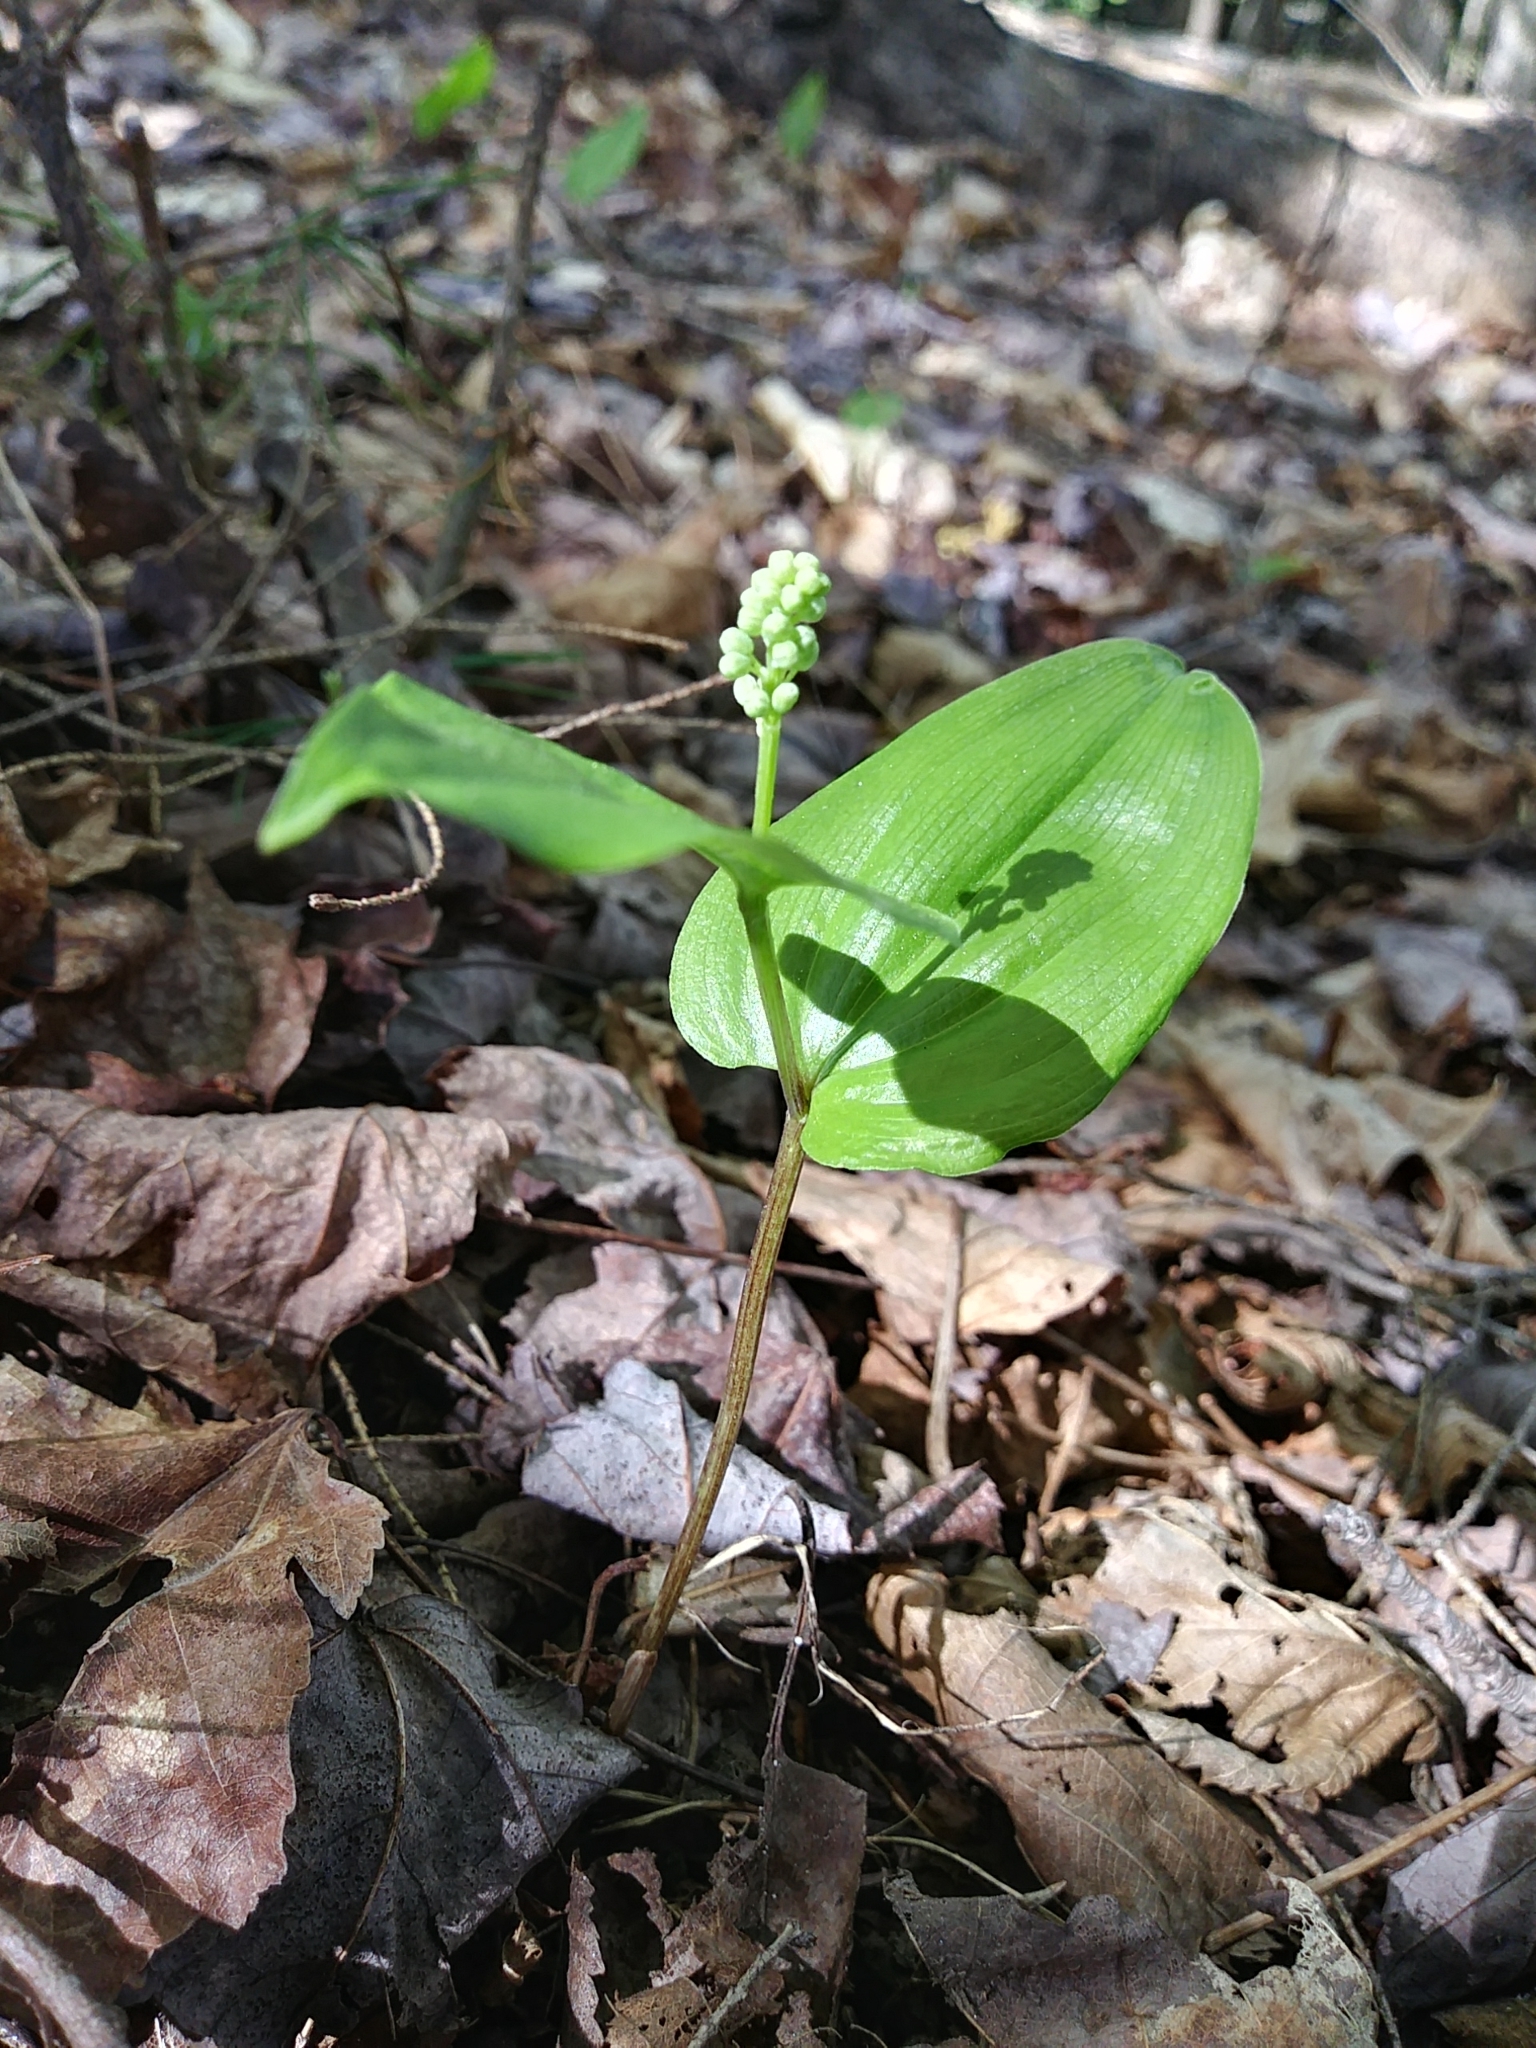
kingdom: Plantae
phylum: Tracheophyta
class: Liliopsida
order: Asparagales
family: Asparagaceae
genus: Maianthemum
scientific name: Maianthemum canadense
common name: False lily-of-the-valley
